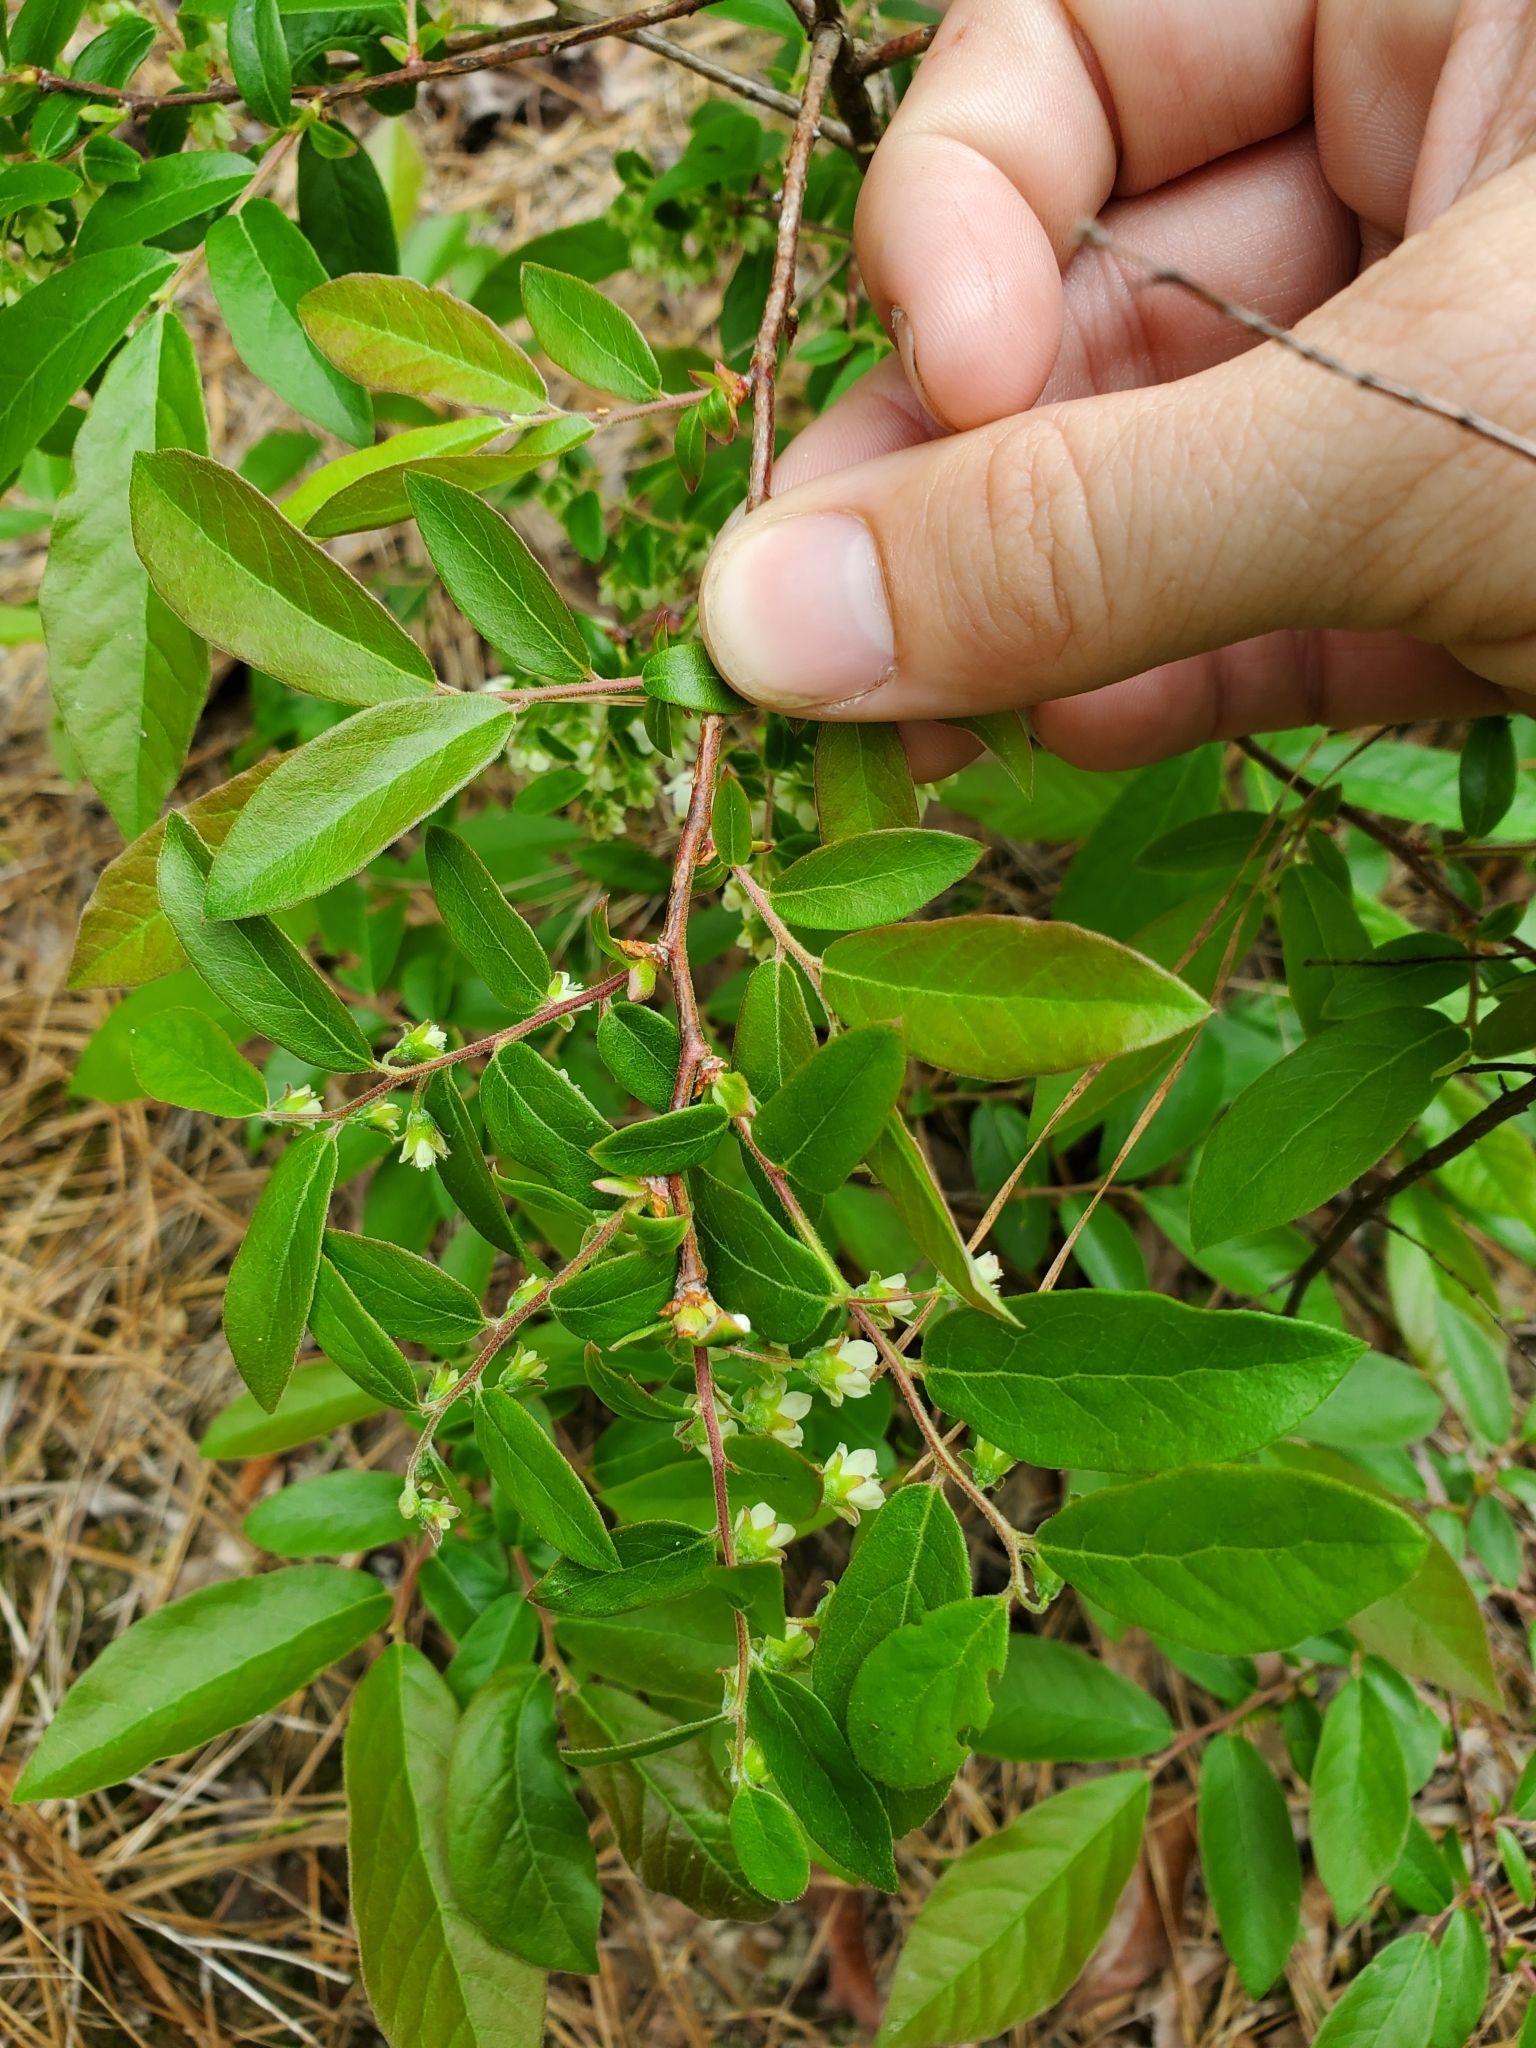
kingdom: Plantae
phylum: Tracheophyta
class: Magnoliopsida
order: Ericales
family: Ericaceae
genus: Vaccinium
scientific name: Vaccinium stamineum
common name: Deerberry
